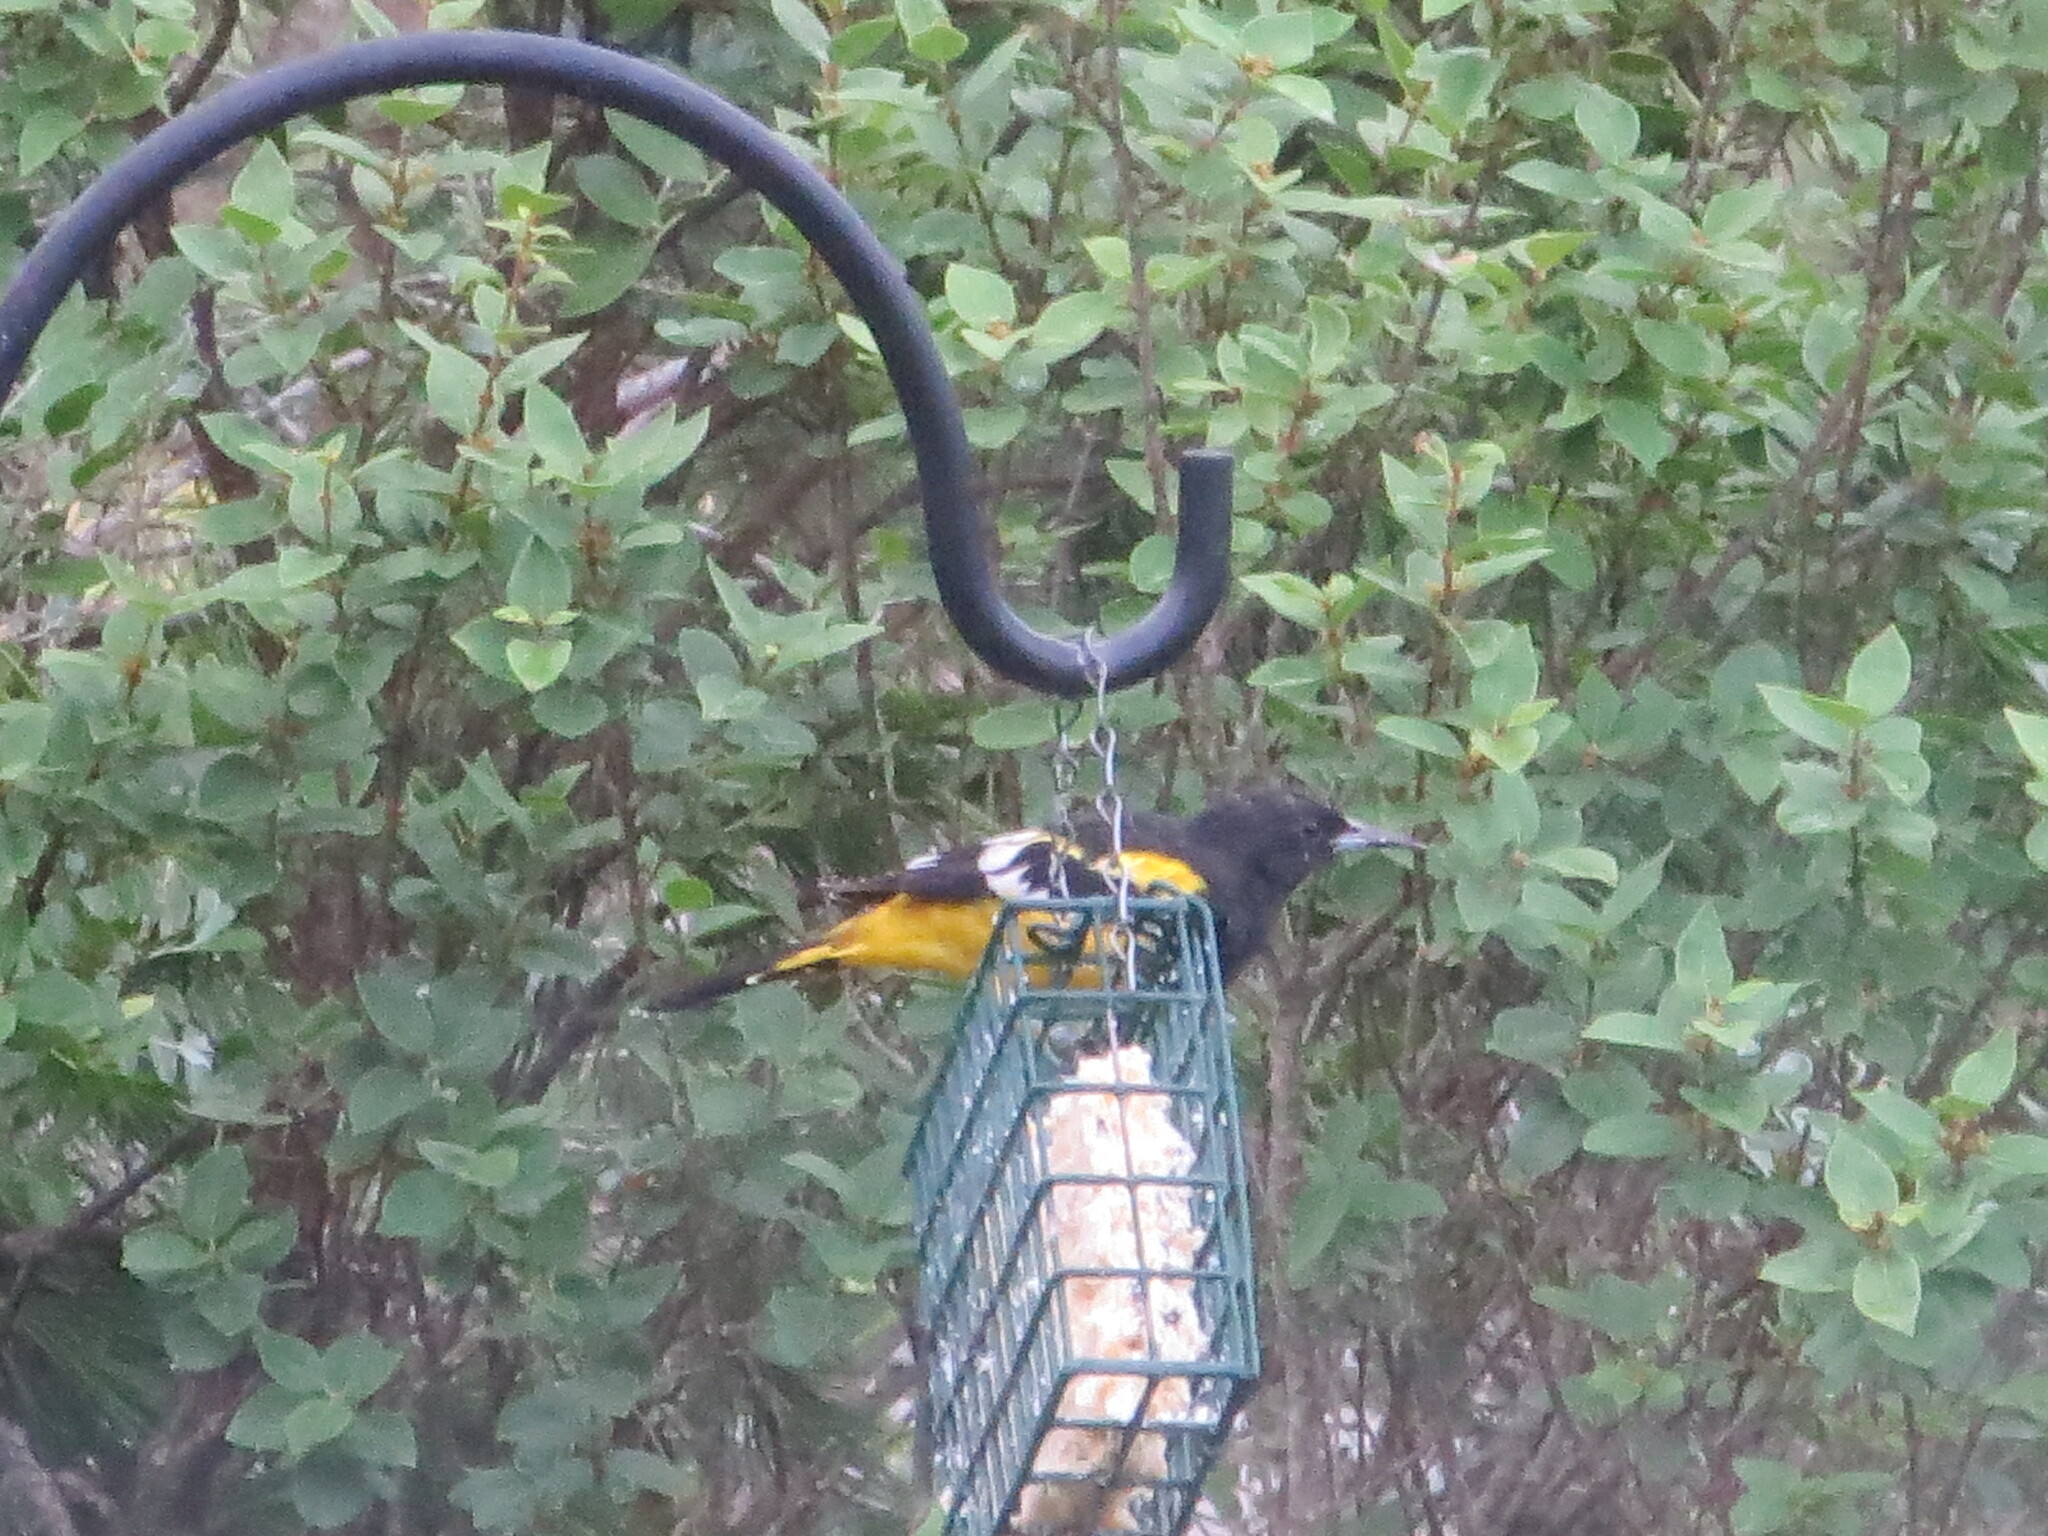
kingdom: Animalia
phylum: Chordata
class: Aves
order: Passeriformes
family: Icteridae
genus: Icterus
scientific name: Icterus parisorum
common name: Scott's oriole
